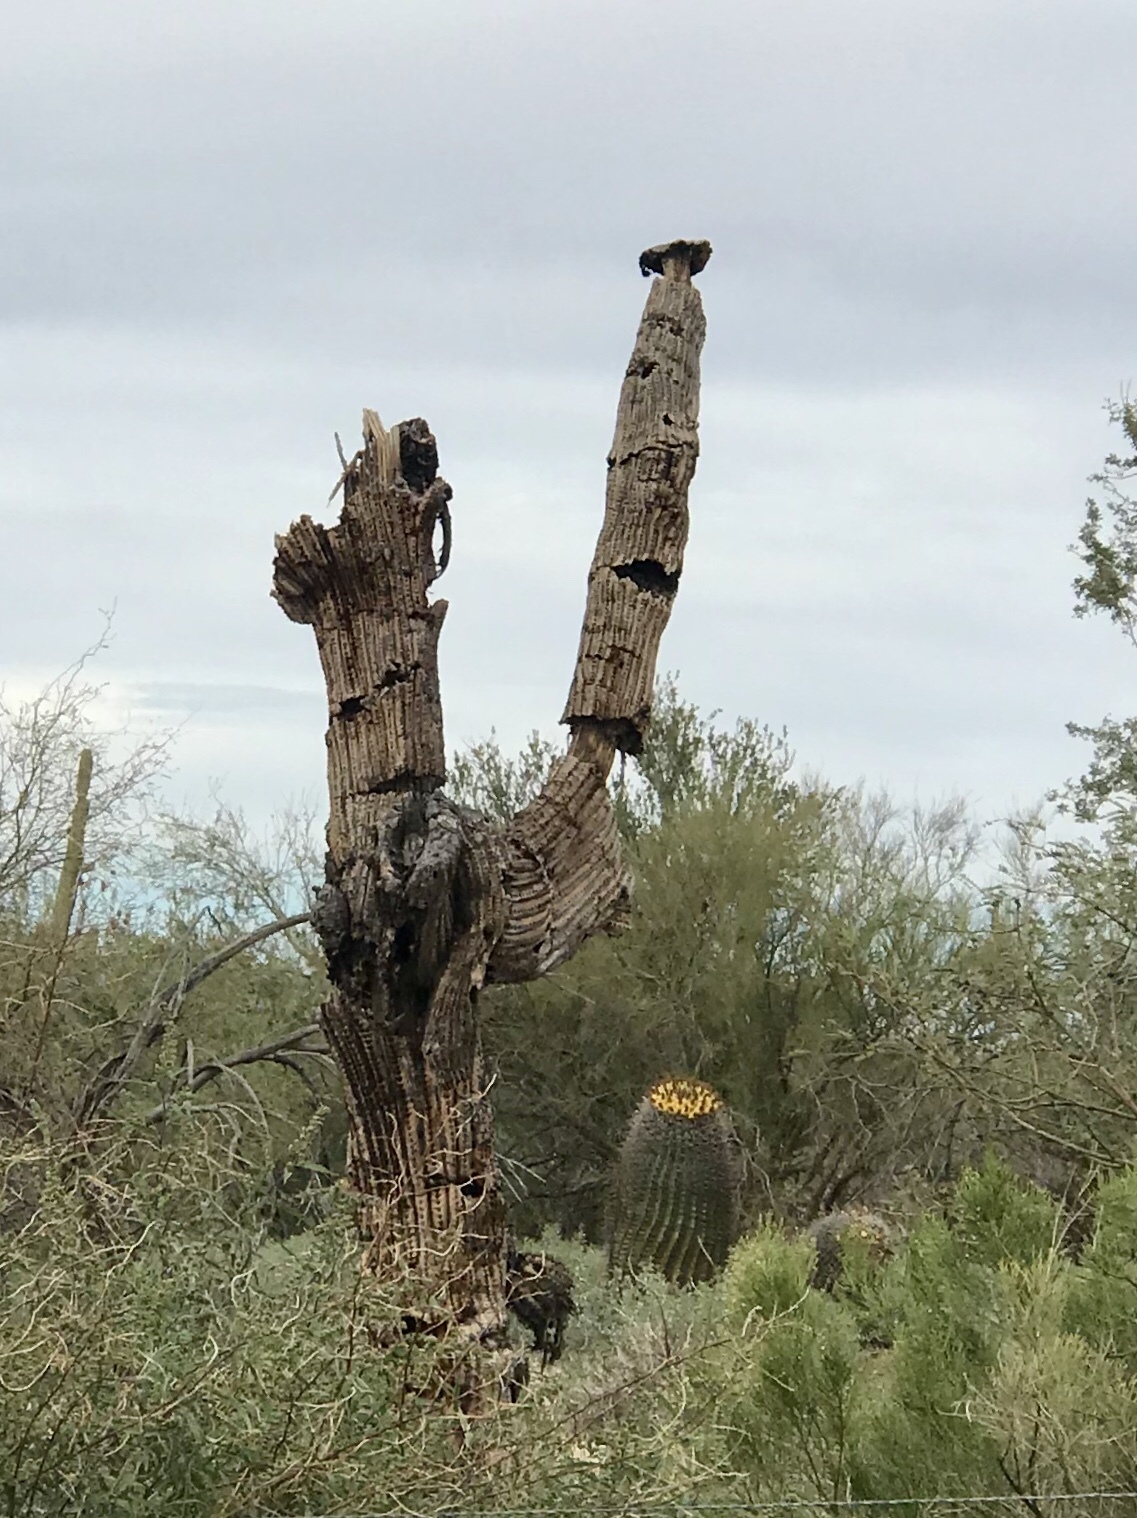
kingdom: Plantae
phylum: Tracheophyta
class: Magnoliopsida
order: Caryophyllales
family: Cactaceae
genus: Carnegiea
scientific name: Carnegiea gigantea
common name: Saguaro
